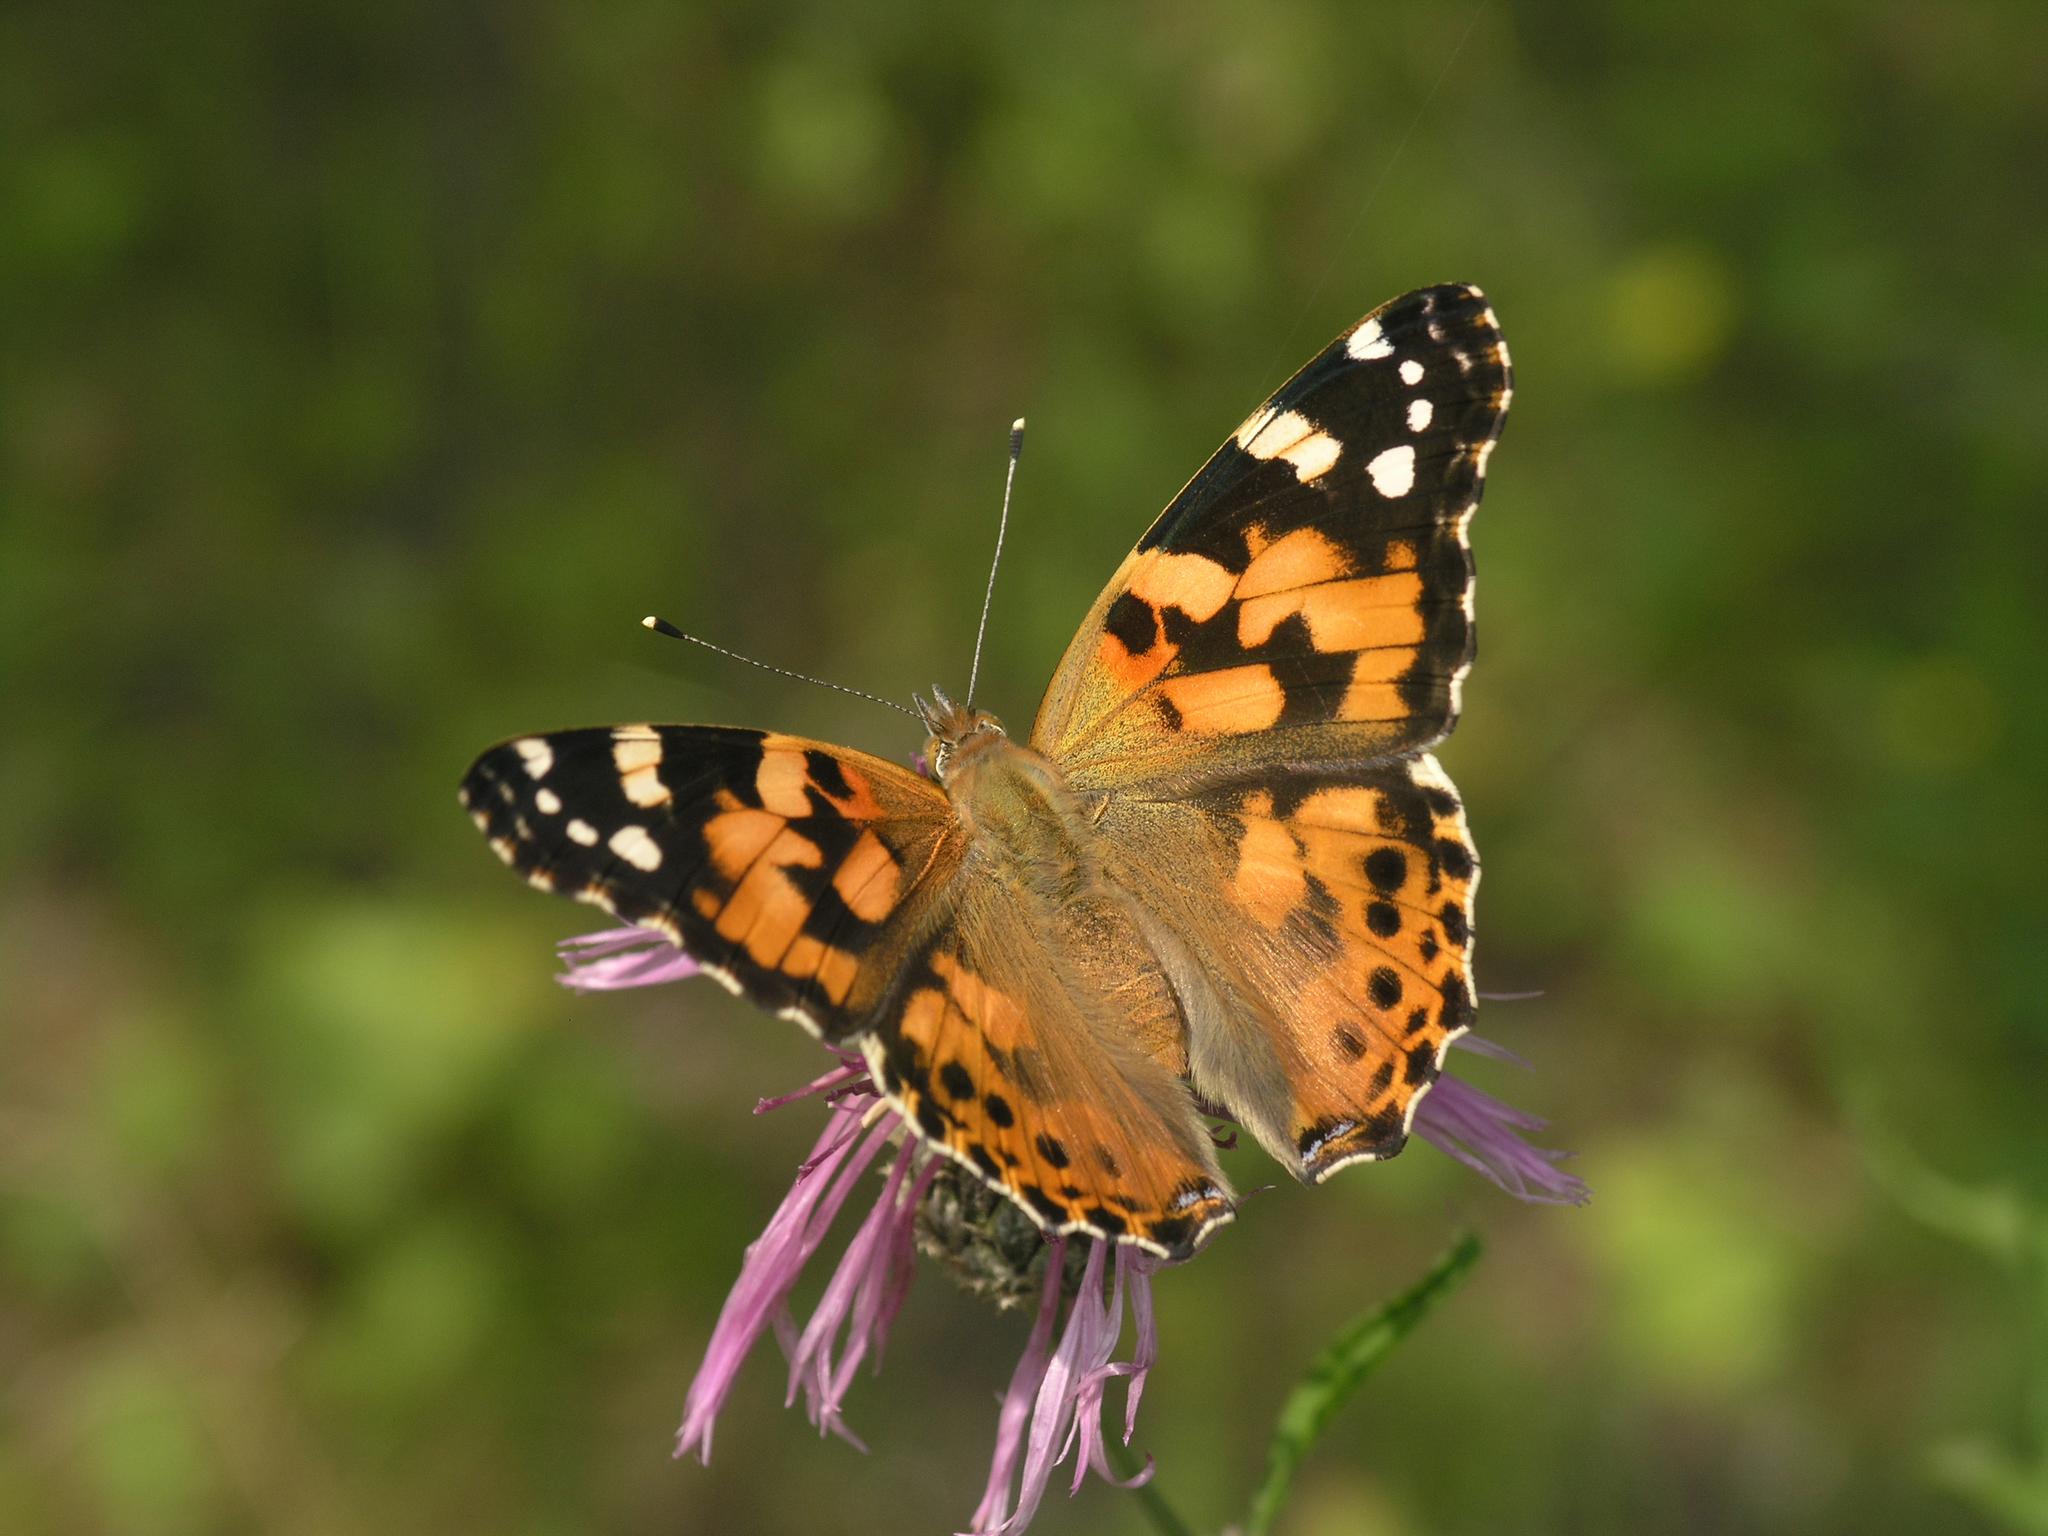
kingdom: Animalia
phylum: Arthropoda
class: Insecta
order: Lepidoptera
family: Nymphalidae
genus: Vanessa
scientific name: Vanessa cardui
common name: Painted lady
